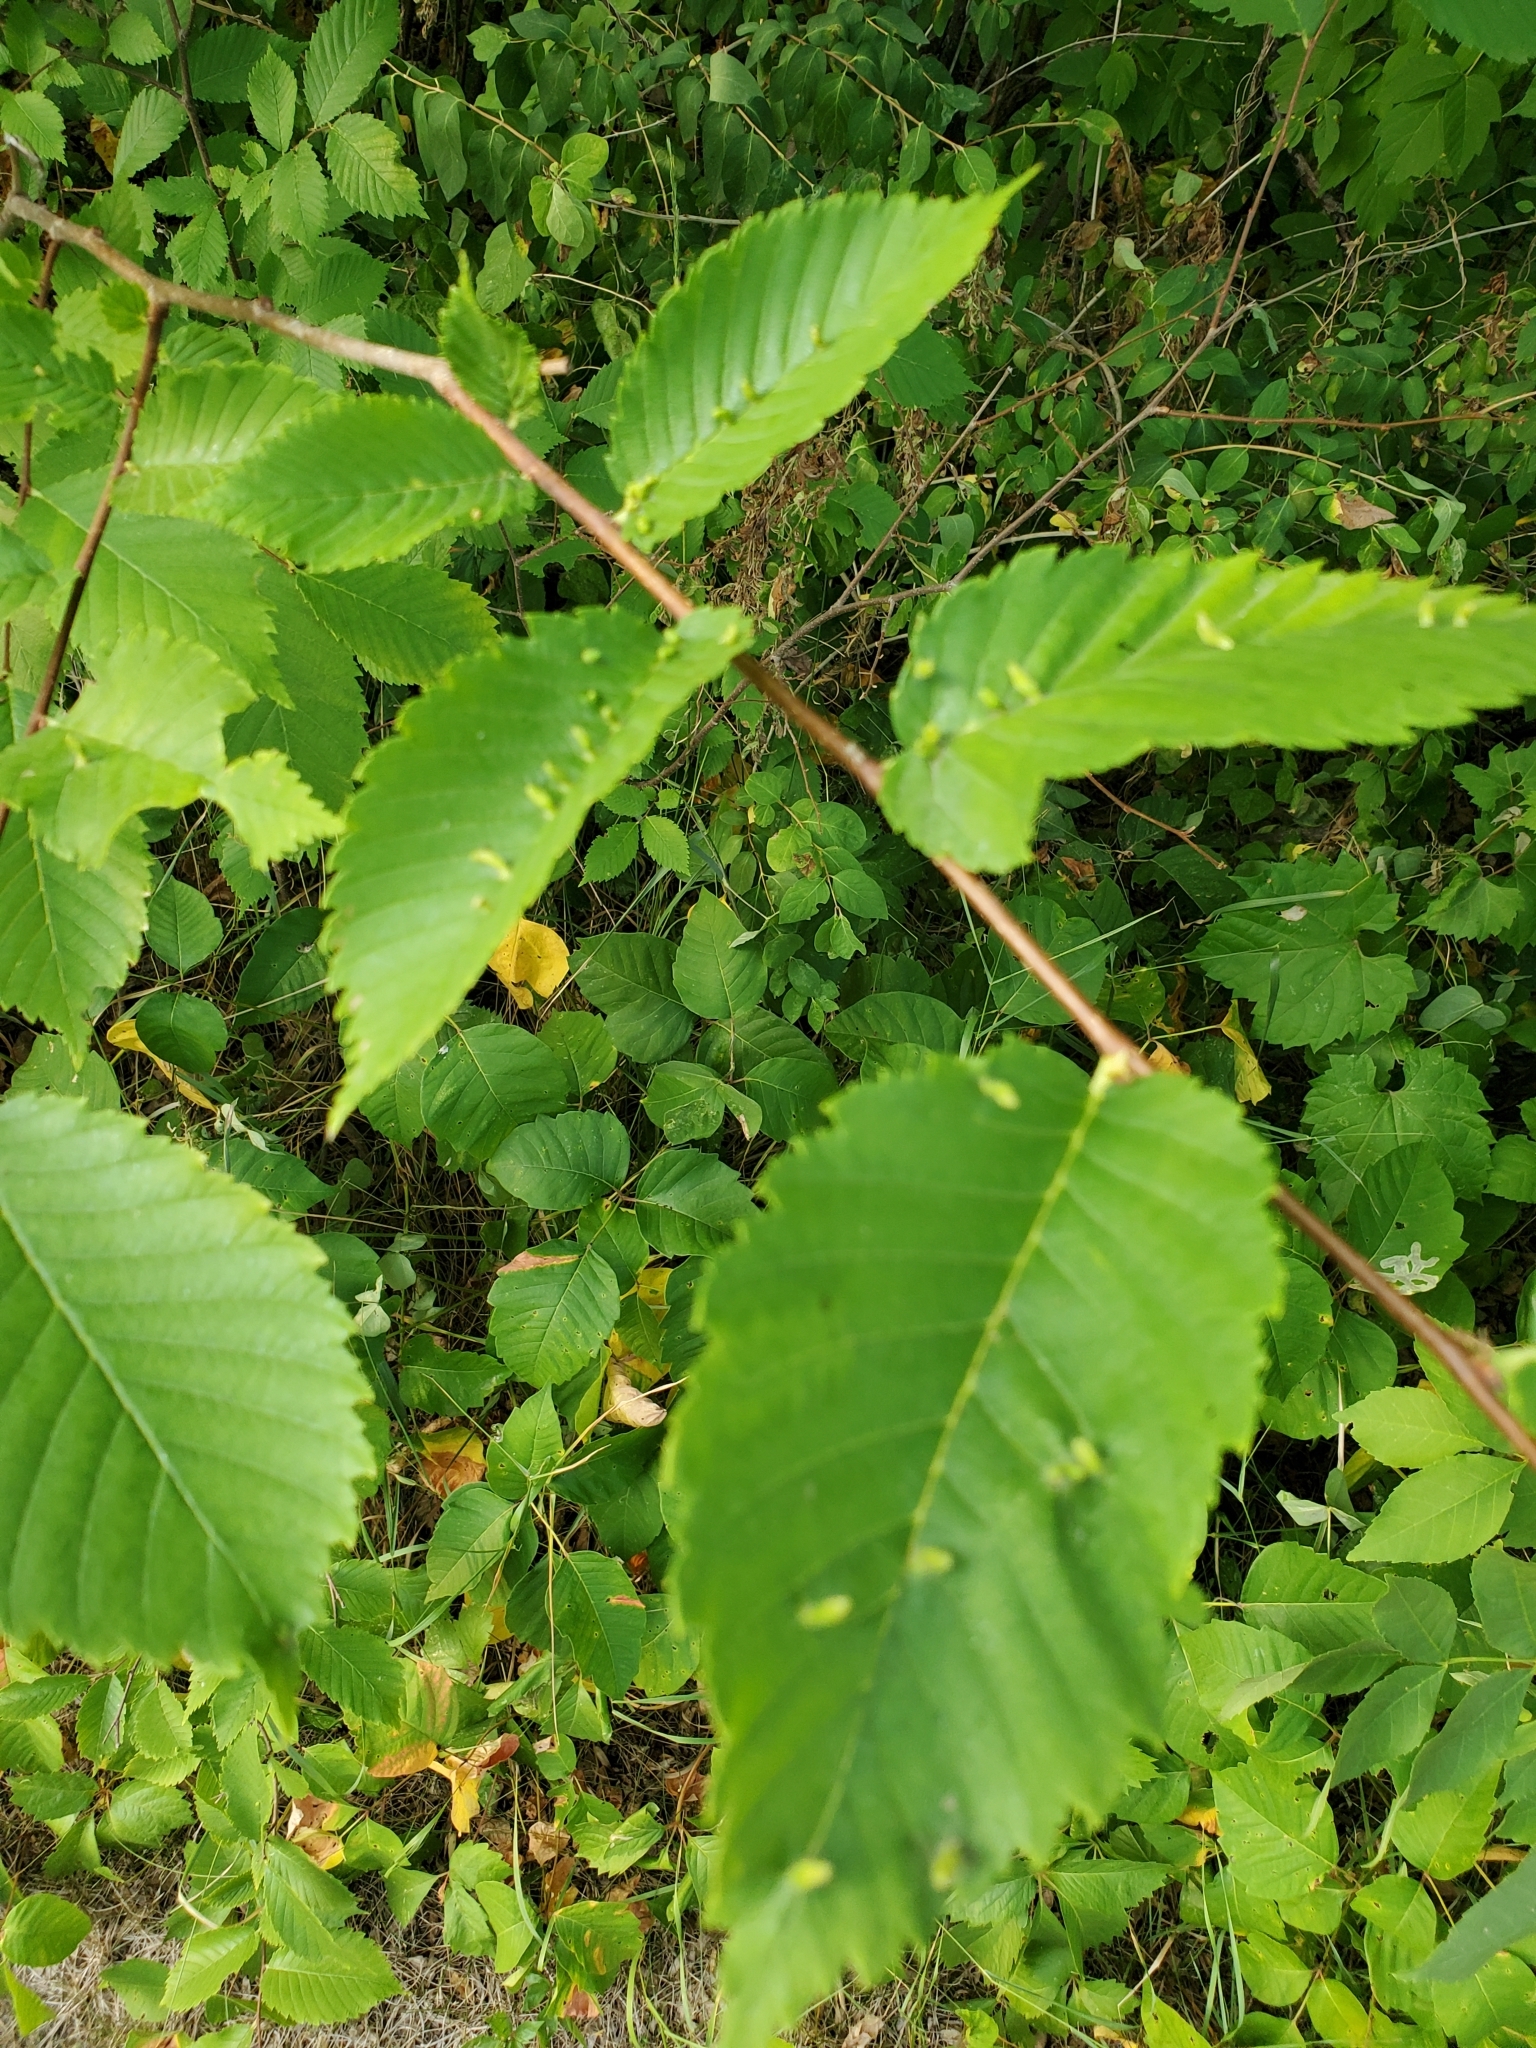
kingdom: Animalia
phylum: Arthropoda
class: Arachnida
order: Trombidiformes
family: Eriophyidae
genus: Aceria
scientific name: Aceria
